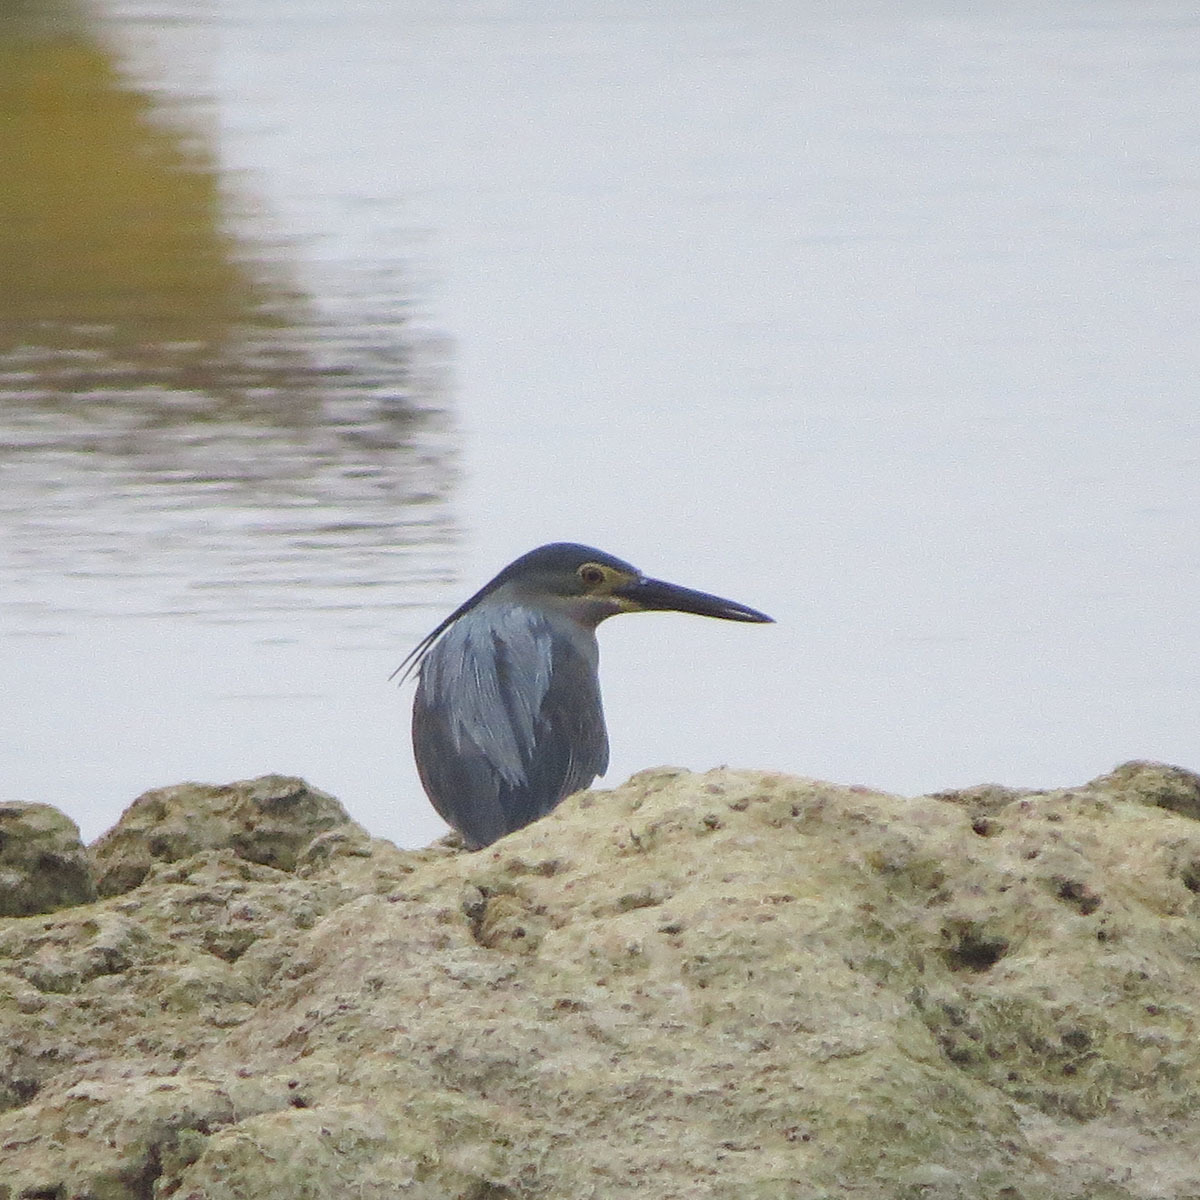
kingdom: Animalia
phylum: Chordata
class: Aves
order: Pelecaniformes
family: Ardeidae
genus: Butorides
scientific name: Butorides striata
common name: Striated heron
